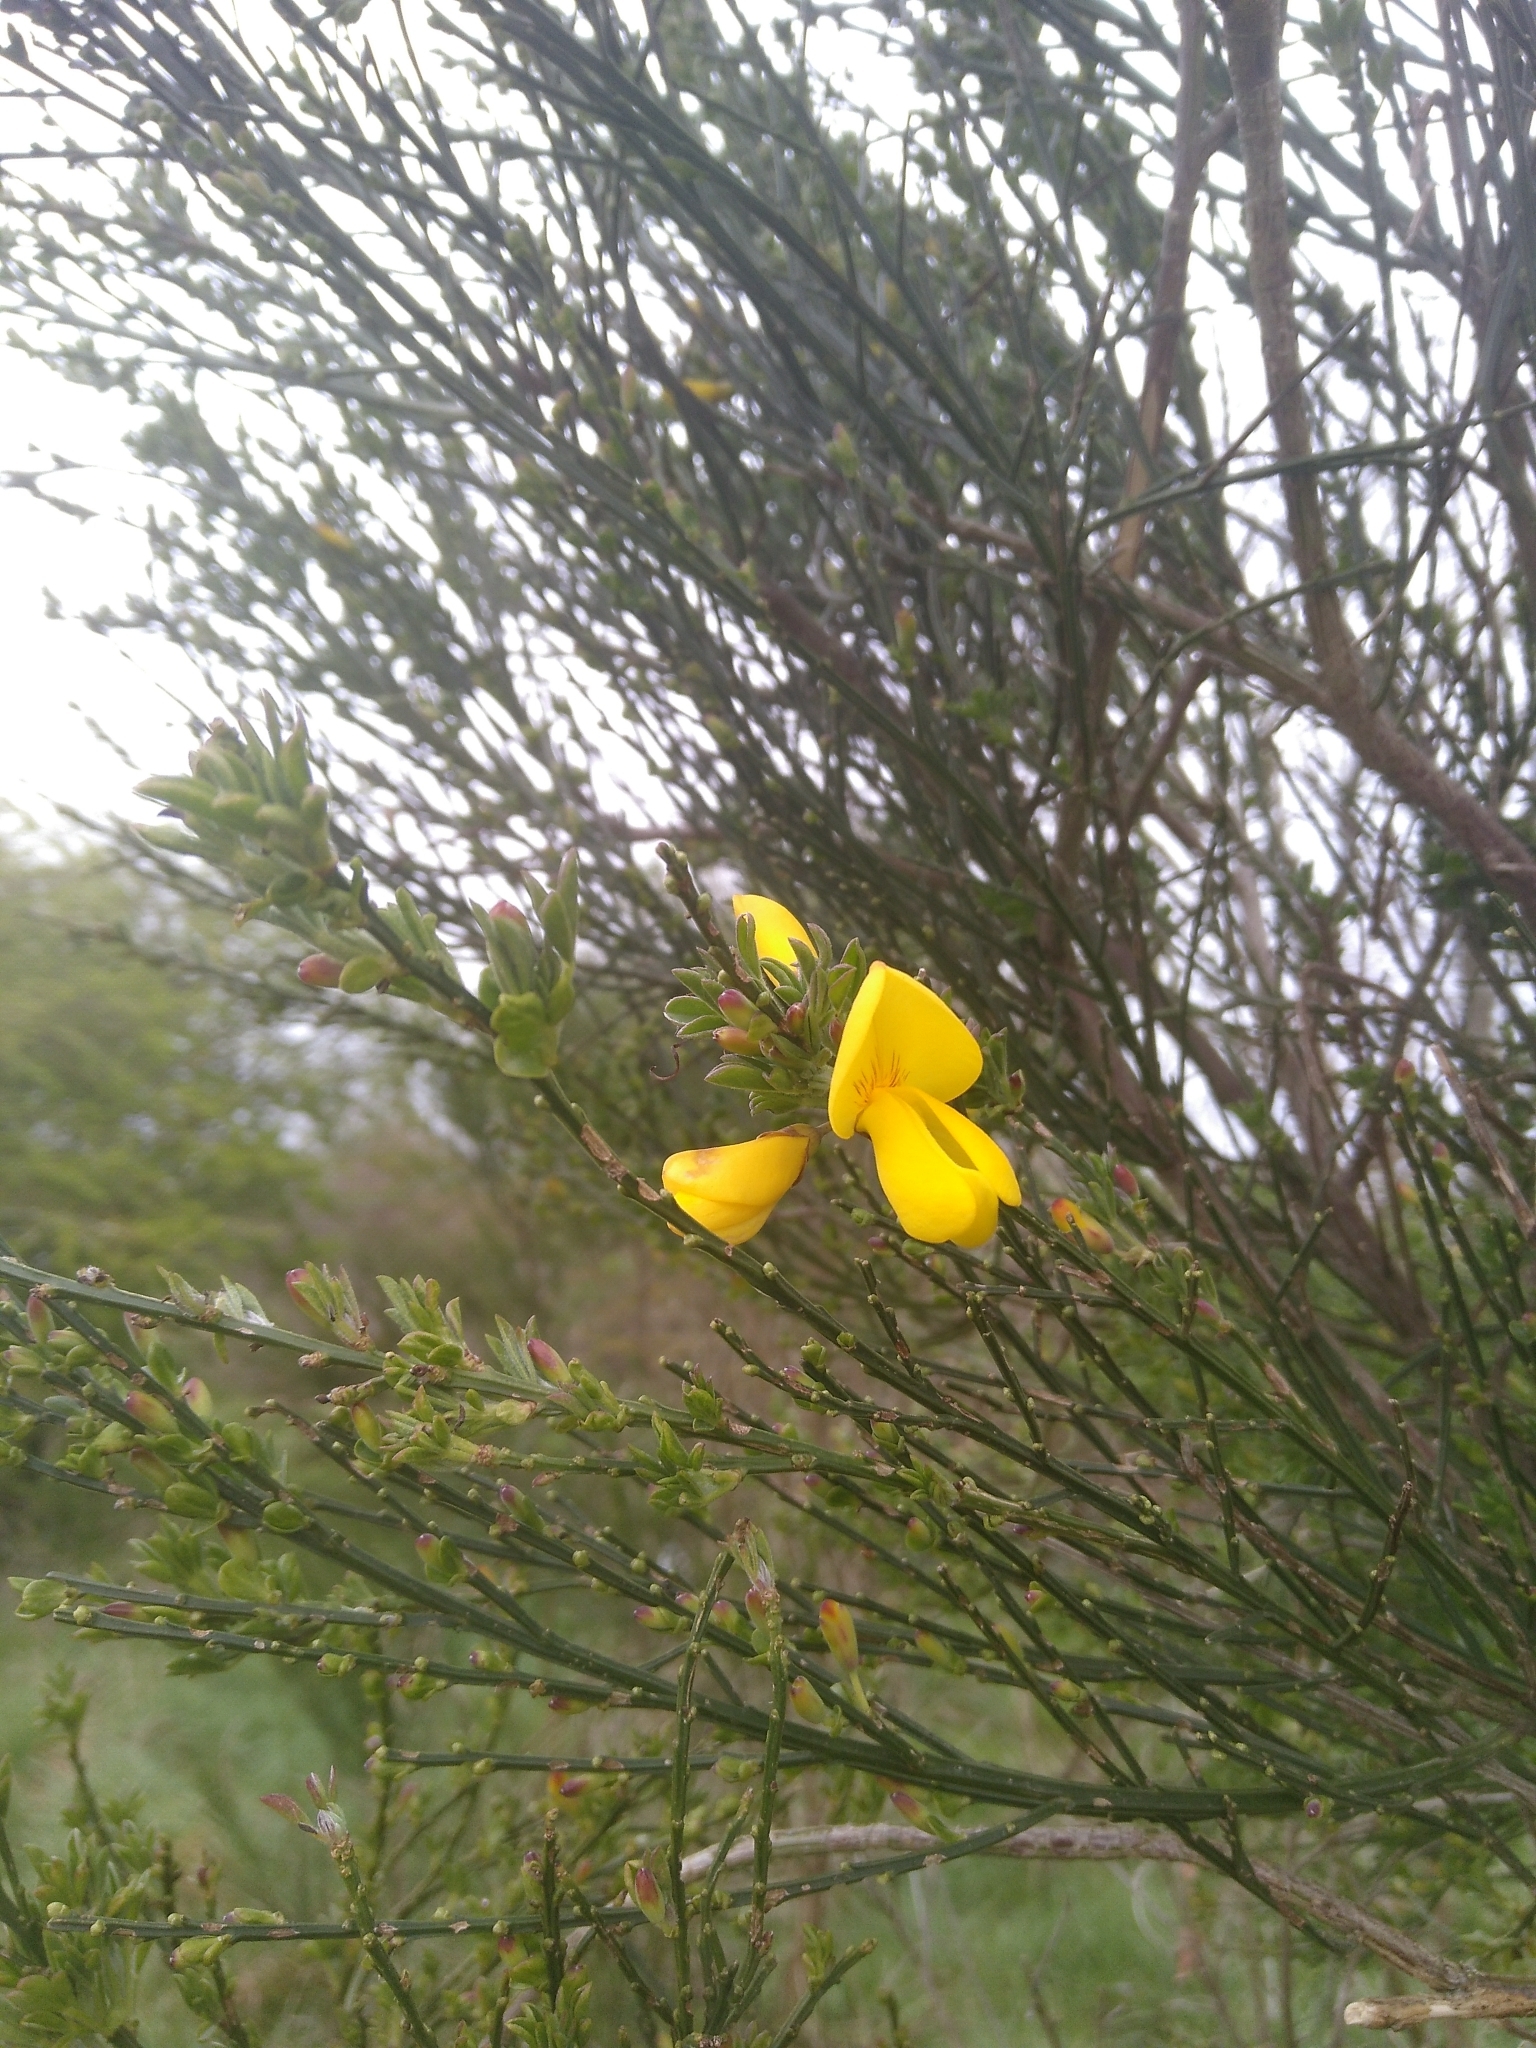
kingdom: Plantae
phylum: Tracheophyta
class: Magnoliopsida
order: Fabales
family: Fabaceae
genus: Cytisus
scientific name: Cytisus scoparius
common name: Scotch broom
